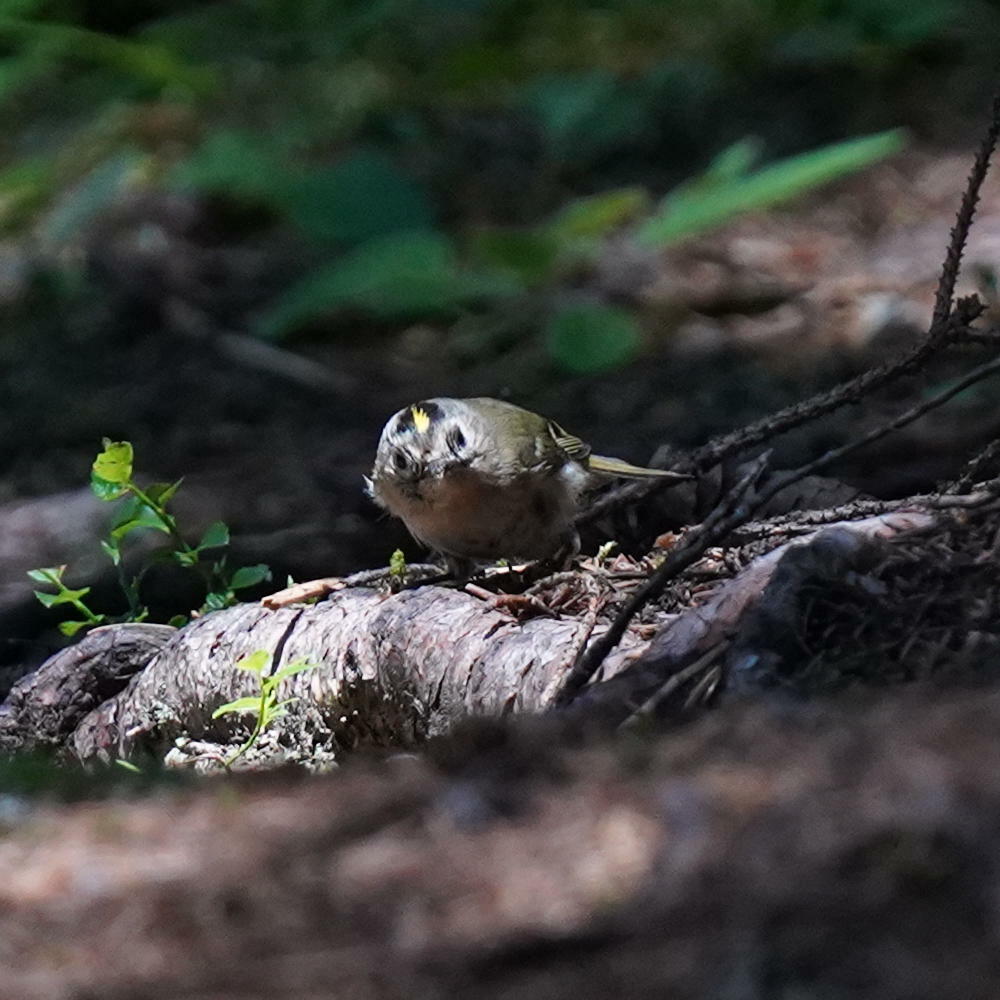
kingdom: Animalia
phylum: Chordata
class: Aves
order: Passeriformes
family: Regulidae
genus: Regulus
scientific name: Regulus regulus
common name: Goldcrest
